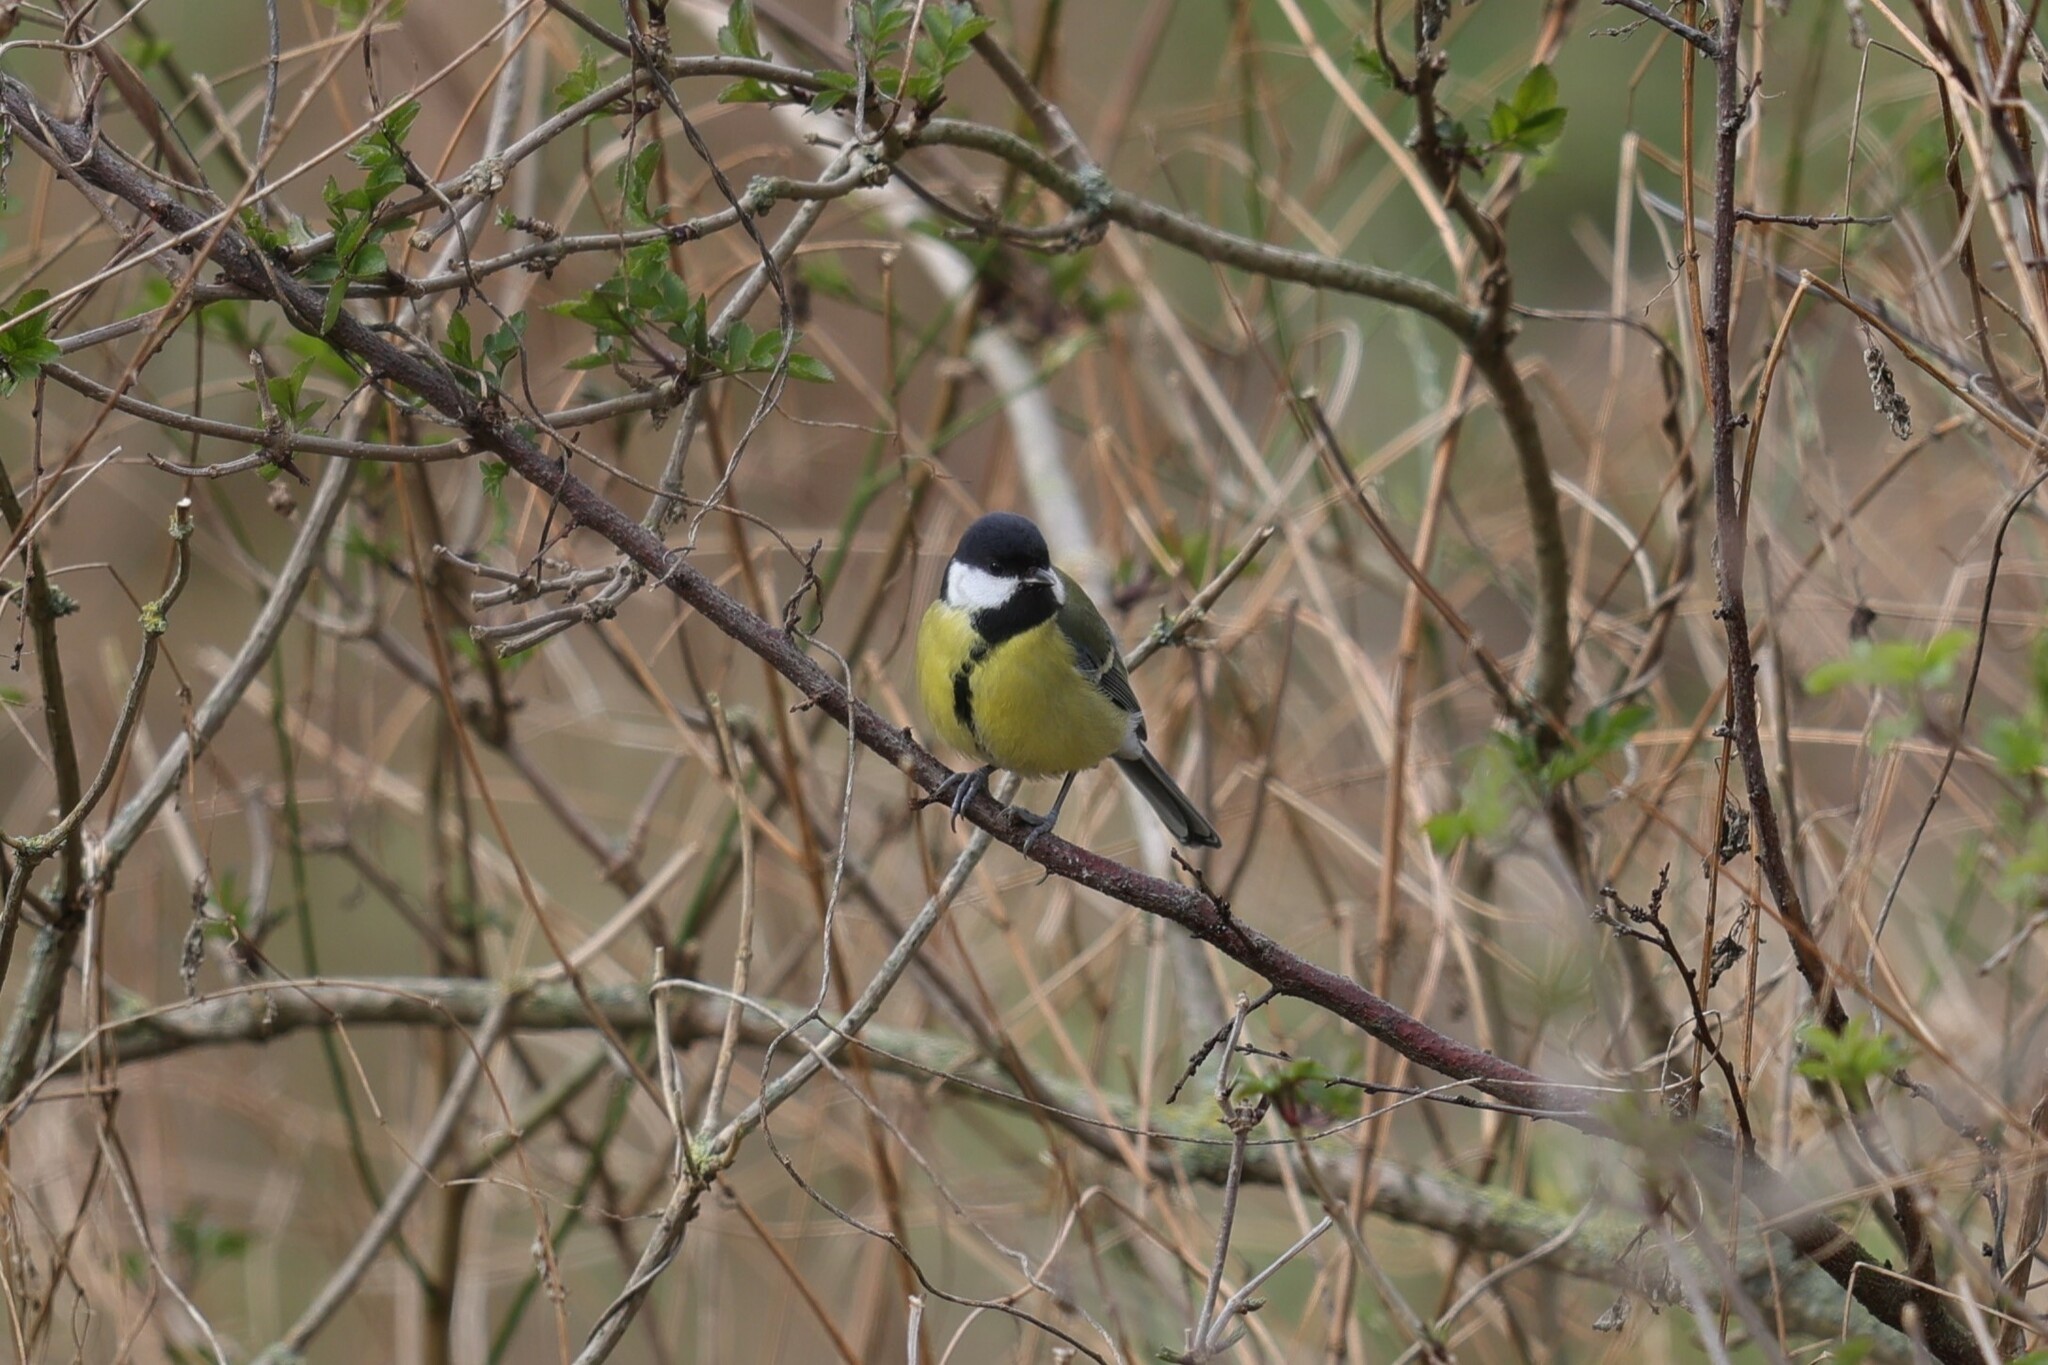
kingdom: Animalia
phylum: Chordata
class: Aves
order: Passeriformes
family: Paridae
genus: Parus
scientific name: Parus major
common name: Great tit
